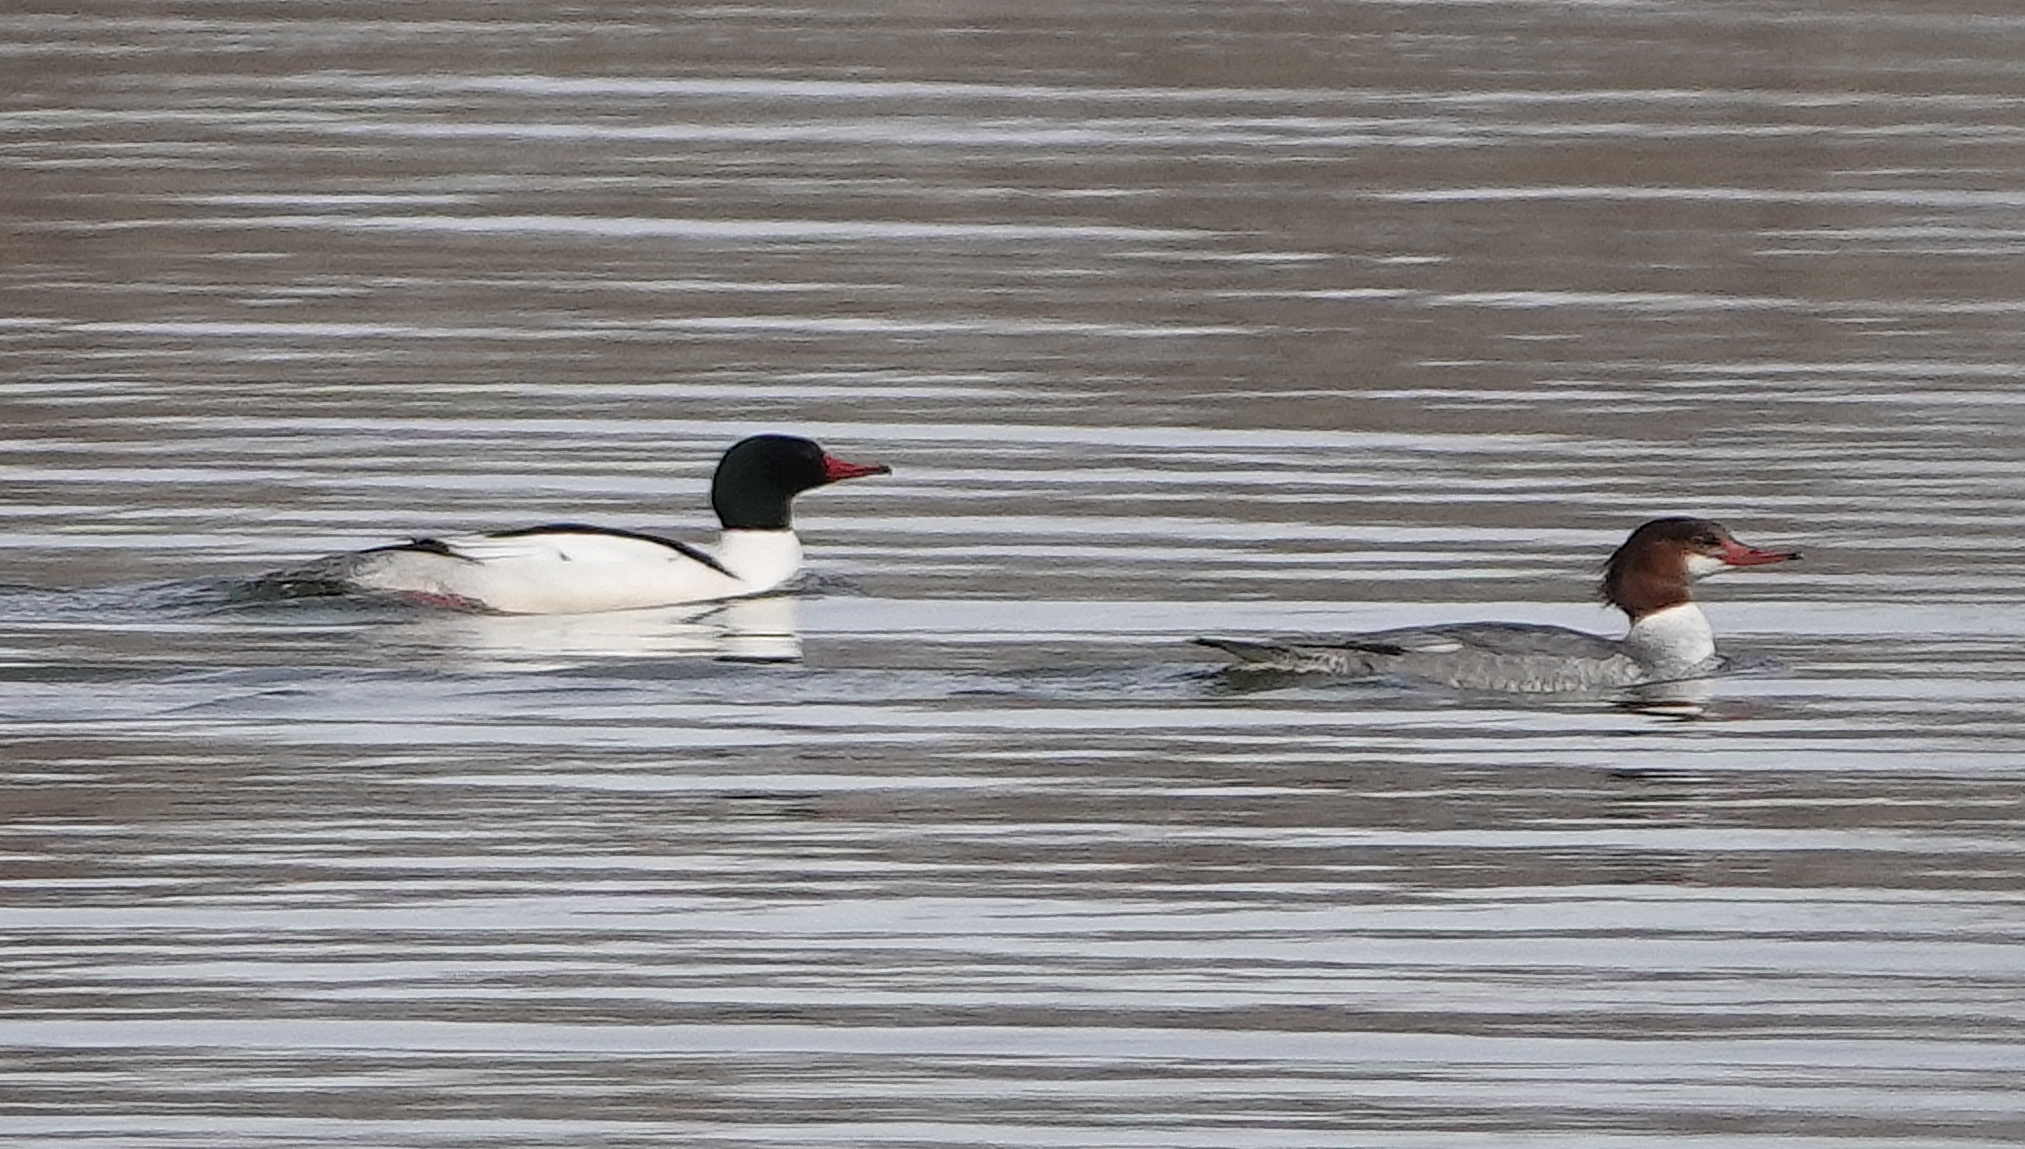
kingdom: Animalia
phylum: Chordata
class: Aves
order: Anseriformes
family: Anatidae
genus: Mergus
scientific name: Mergus merganser
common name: Common merganser
